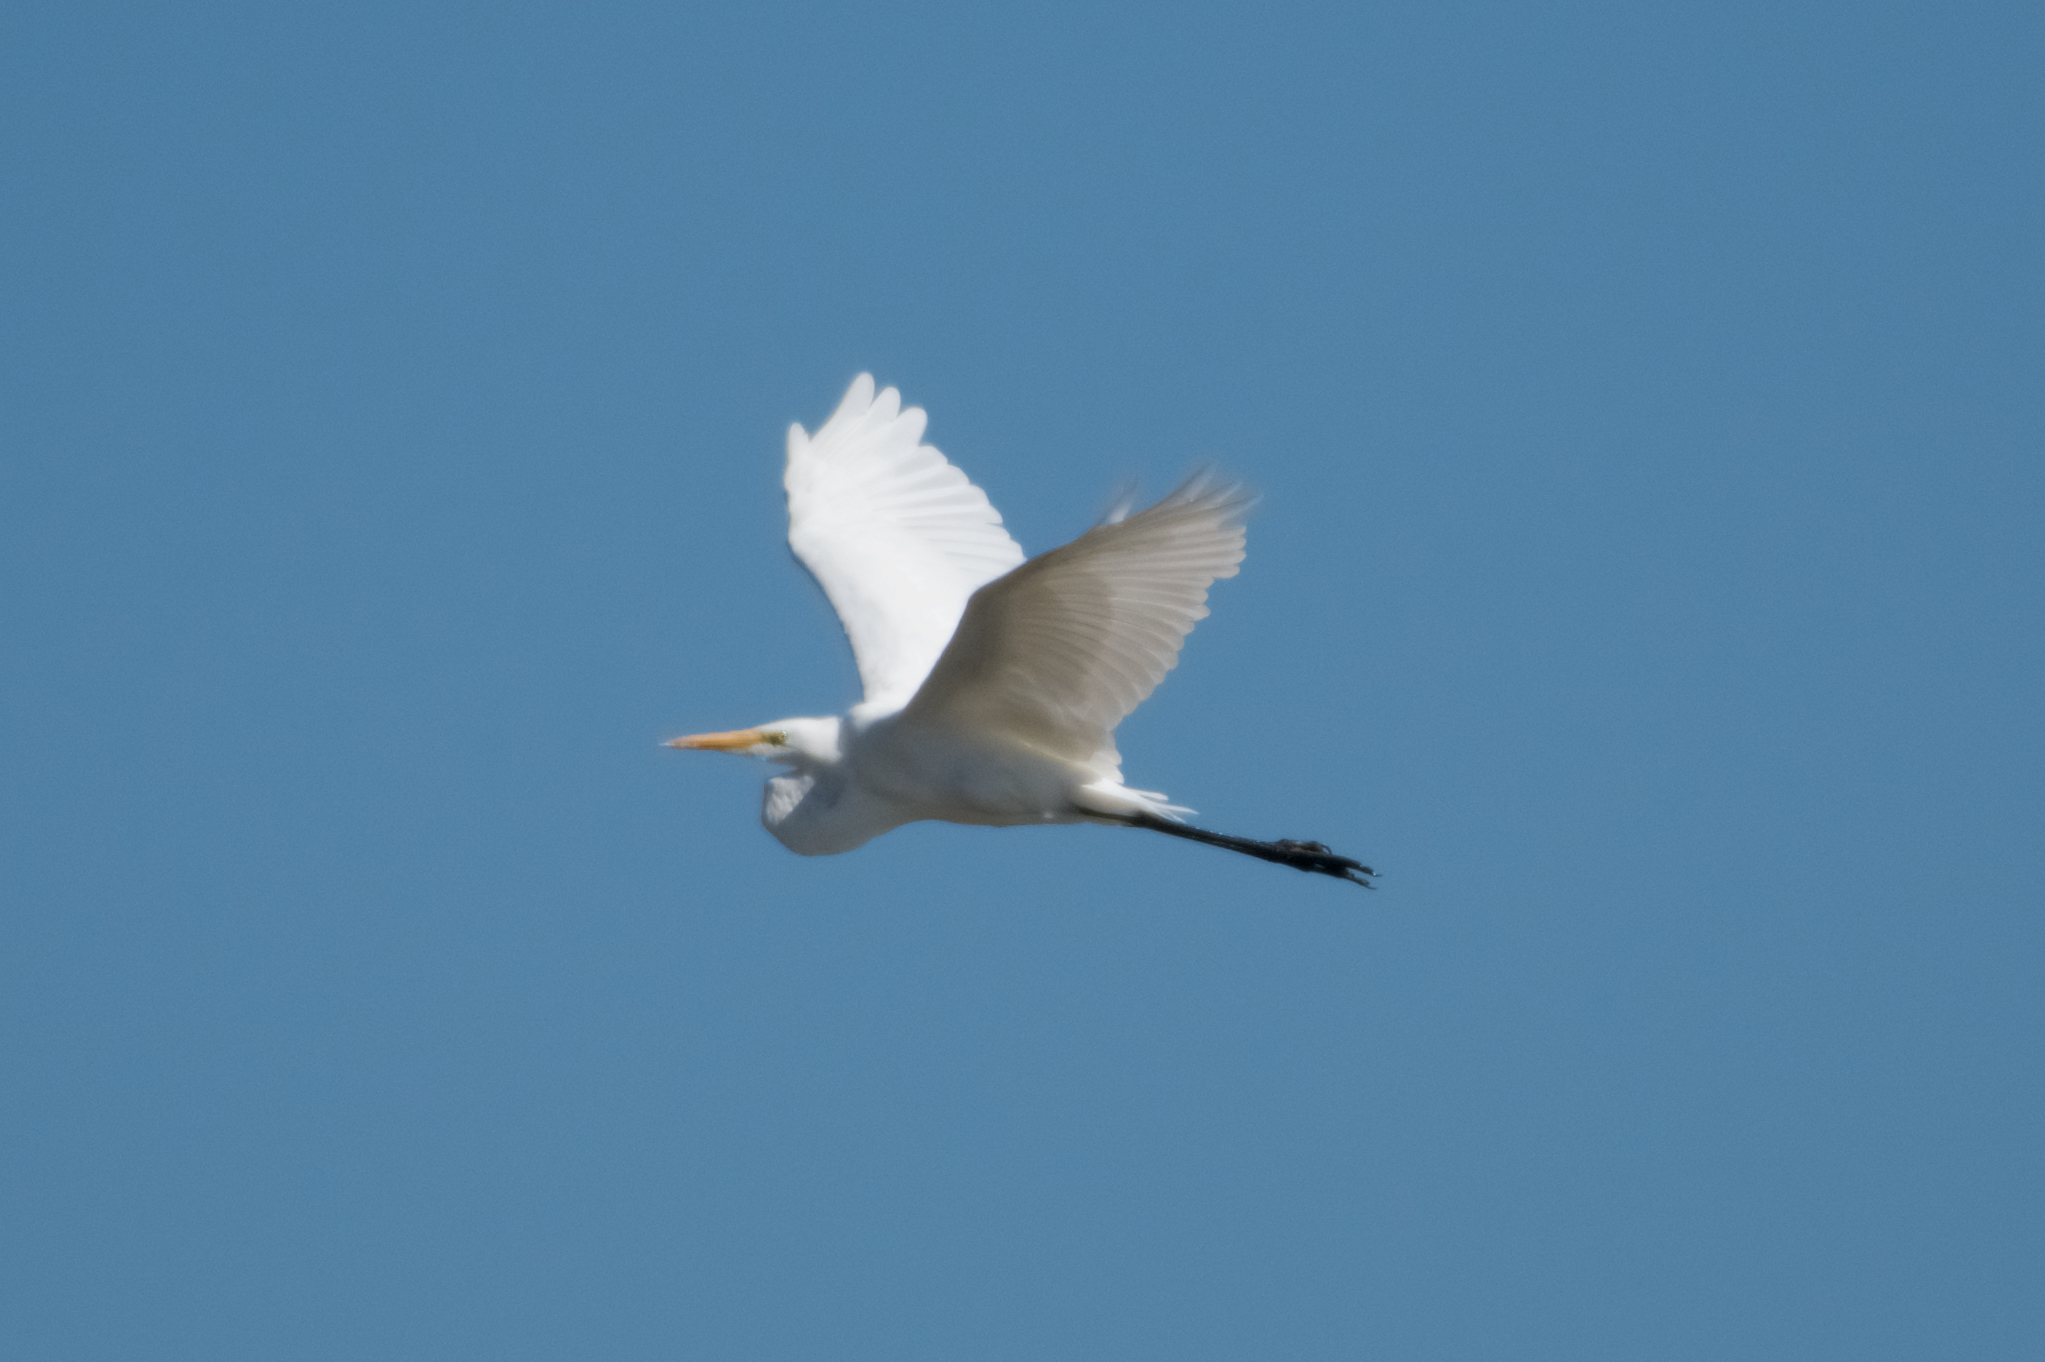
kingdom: Animalia
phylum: Chordata
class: Aves
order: Pelecaniformes
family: Ardeidae
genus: Ardea
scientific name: Ardea alba
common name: Great egret
